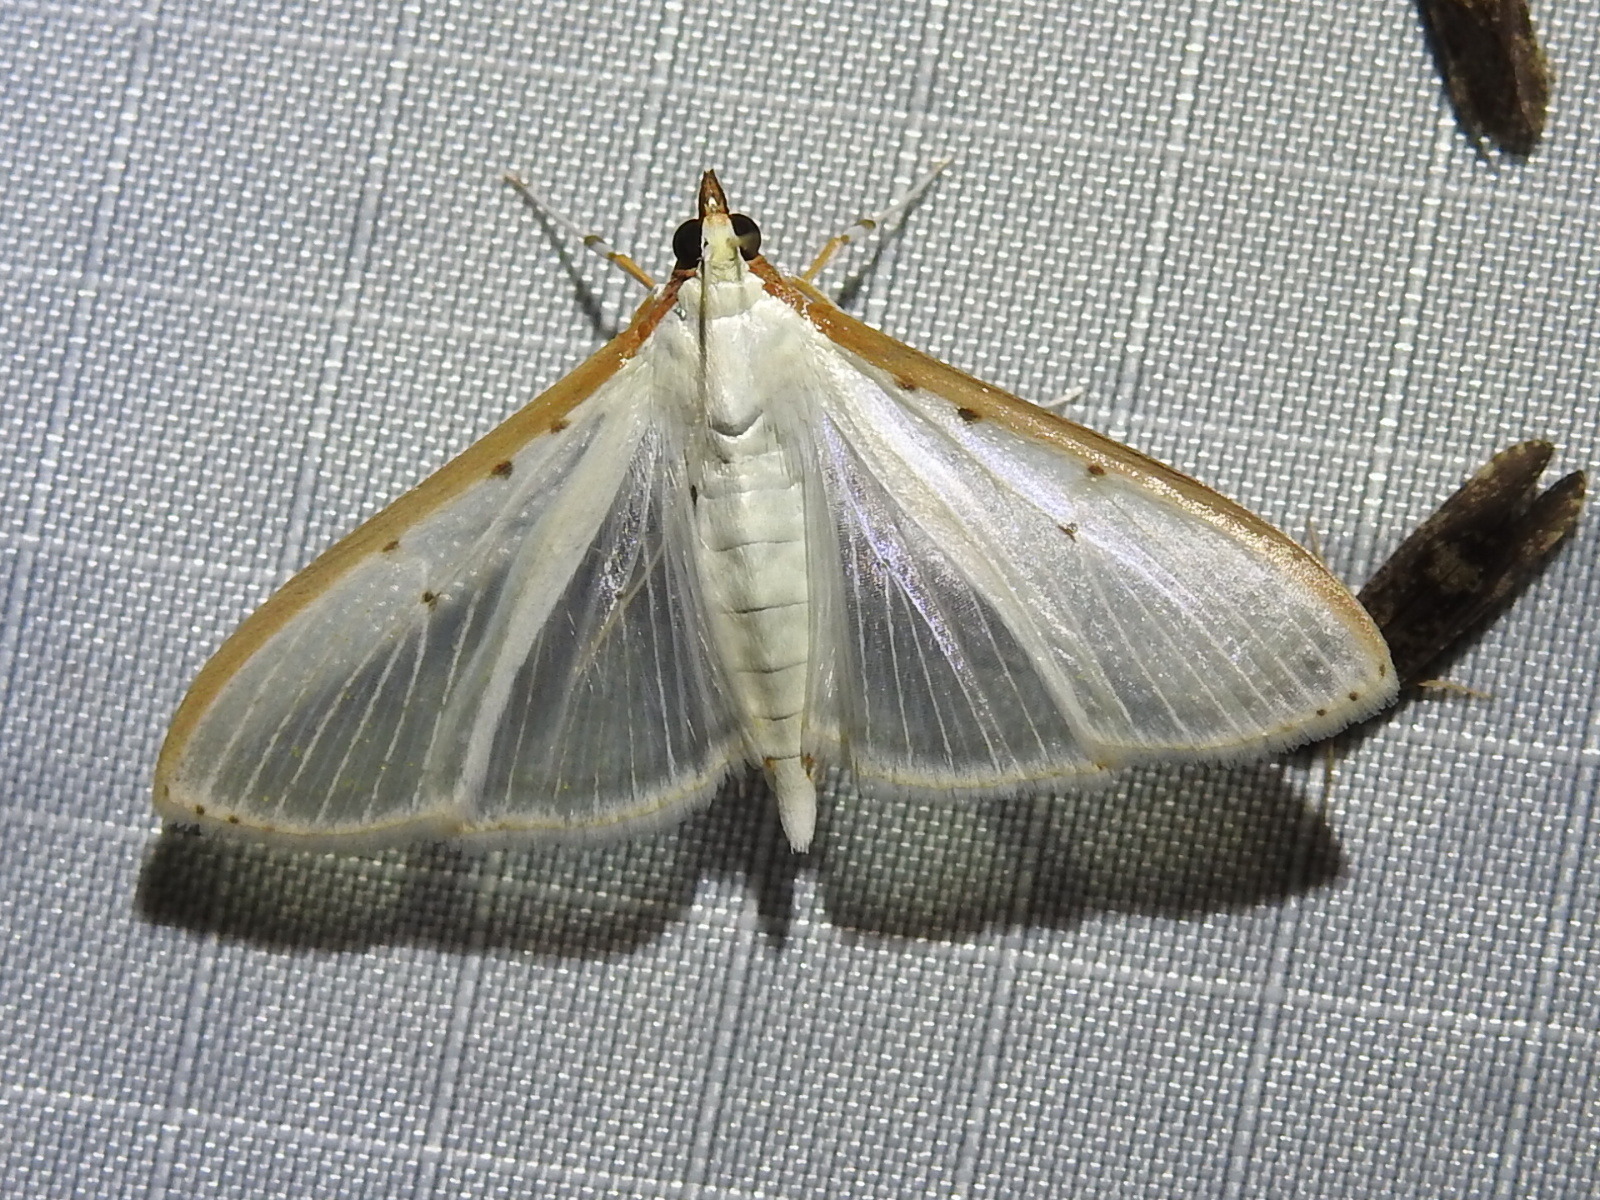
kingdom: Animalia
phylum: Arthropoda
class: Insecta
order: Lepidoptera
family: Crambidae
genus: Palpita
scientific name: Palpita quadristigmalis
